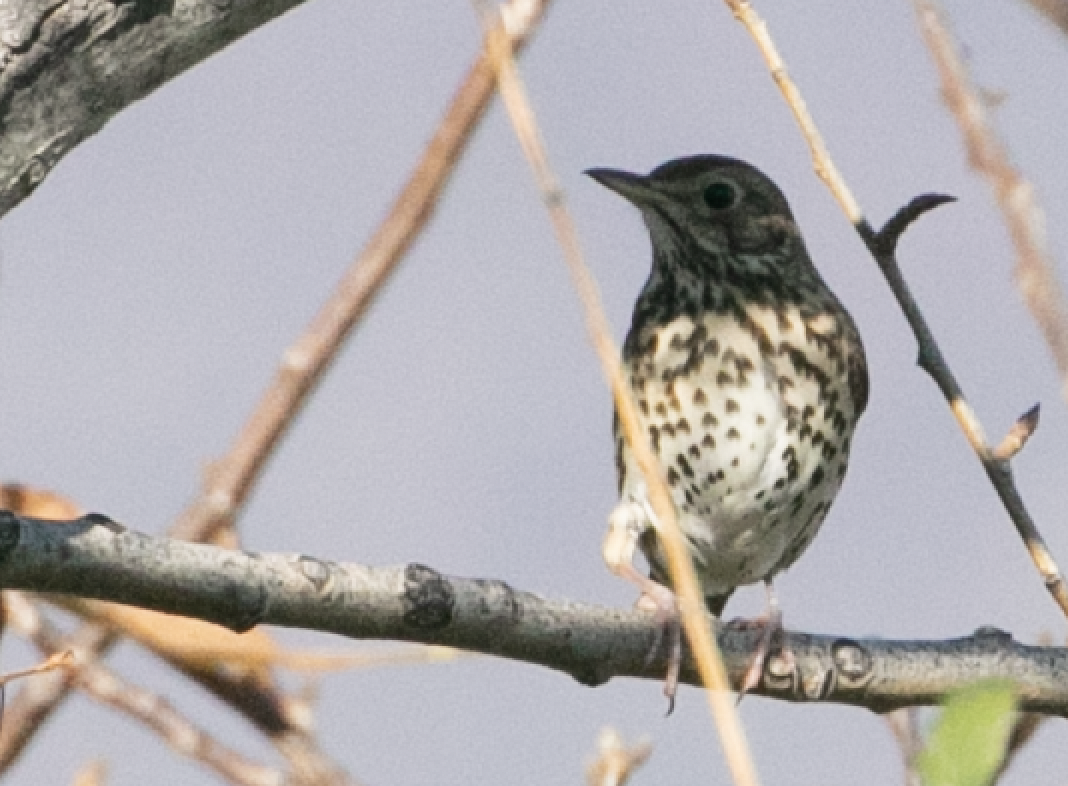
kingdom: Animalia
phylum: Chordata
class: Aves
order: Passeriformes
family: Turdidae
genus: Turdus
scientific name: Turdus philomelos
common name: Song thrush
